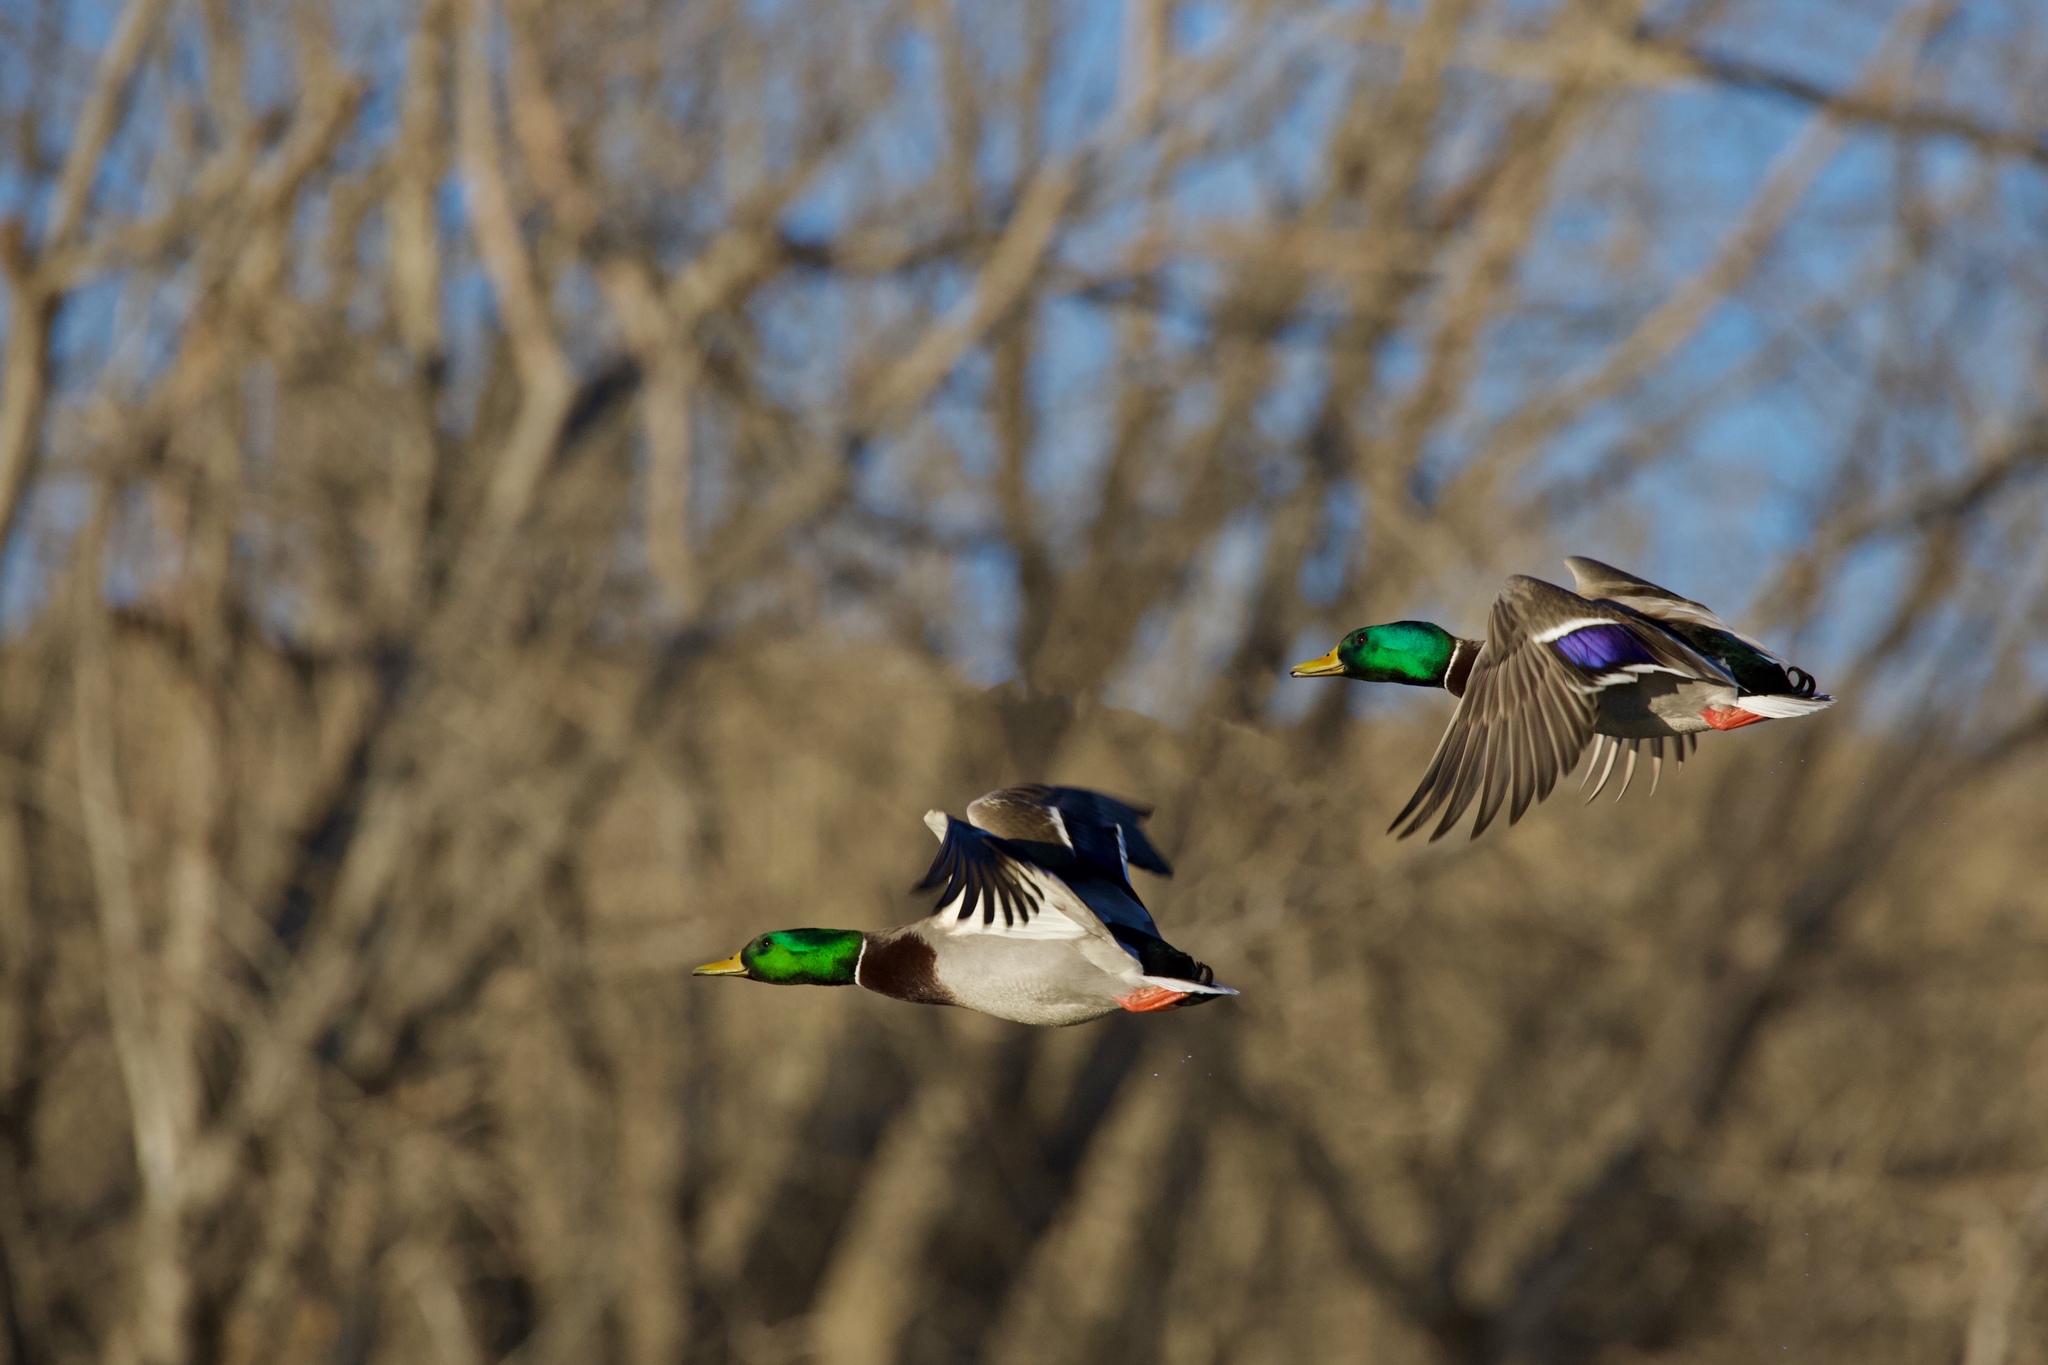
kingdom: Animalia
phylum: Chordata
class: Aves
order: Anseriformes
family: Anatidae
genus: Anas
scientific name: Anas platyrhynchos
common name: Mallard
